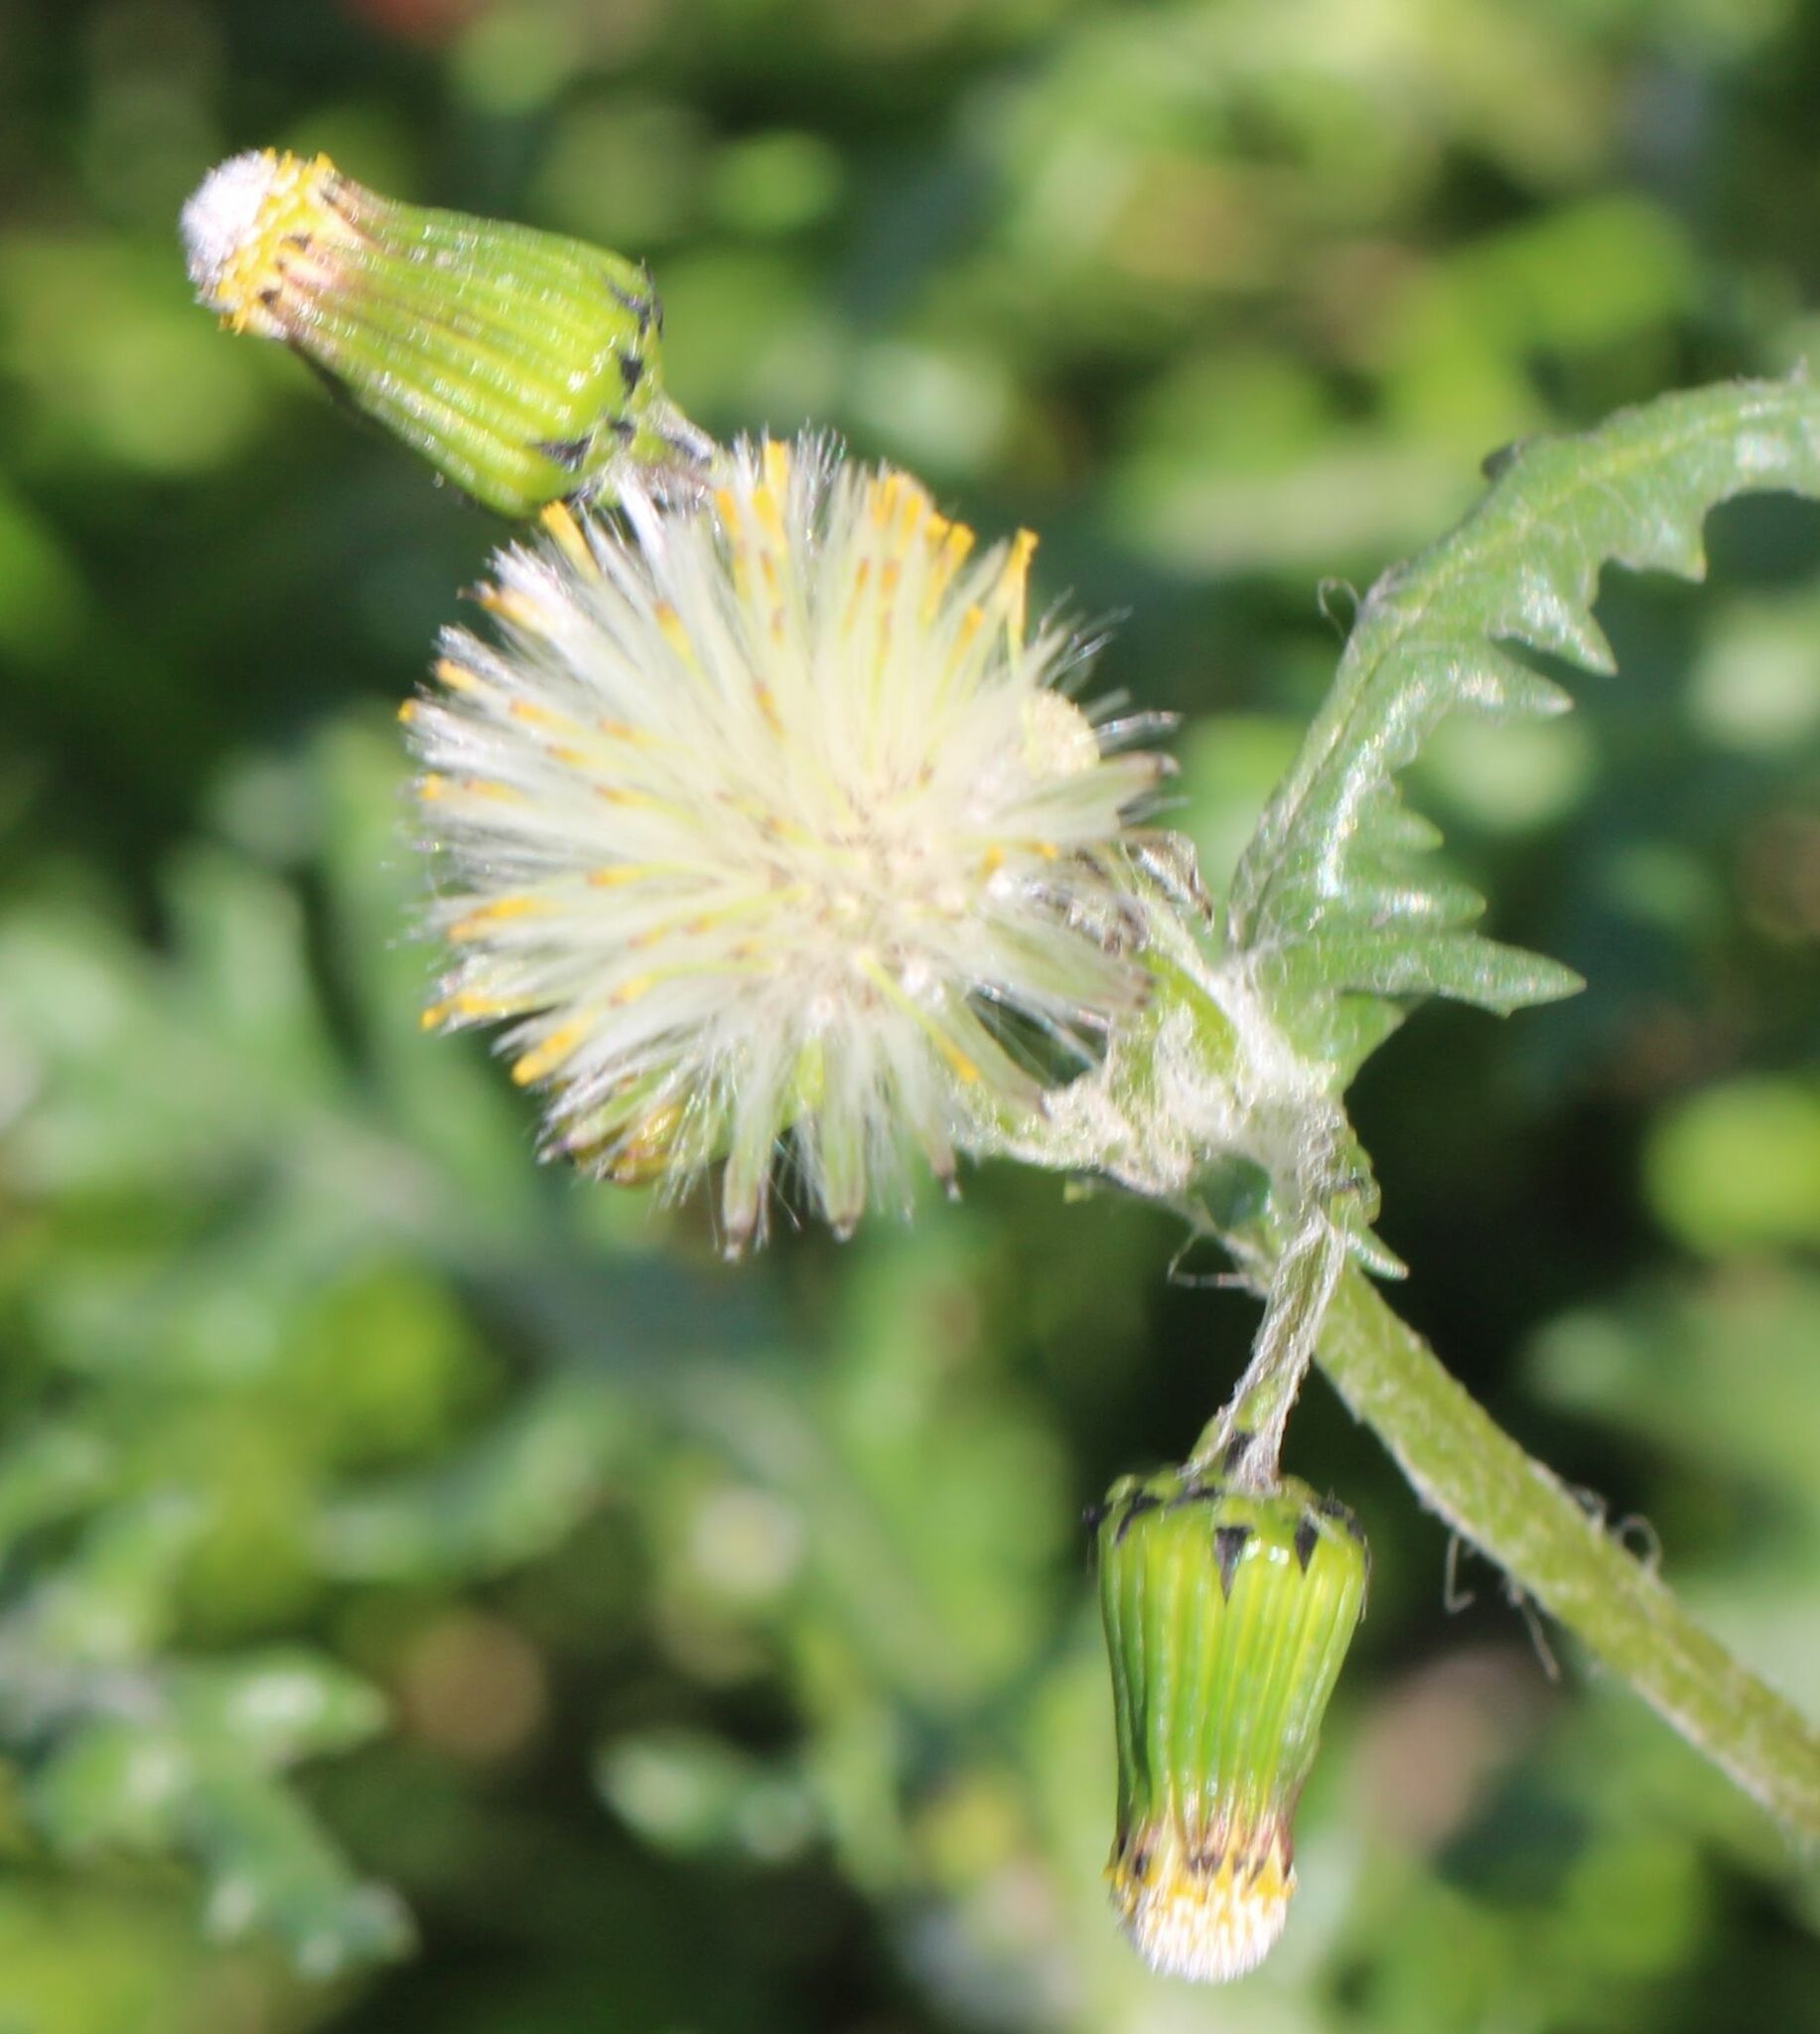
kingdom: Plantae
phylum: Tracheophyta
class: Magnoliopsida
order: Asterales
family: Asteraceae
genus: Senecio
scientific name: Senecio vulgaris
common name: Old-man-in-the-spring
